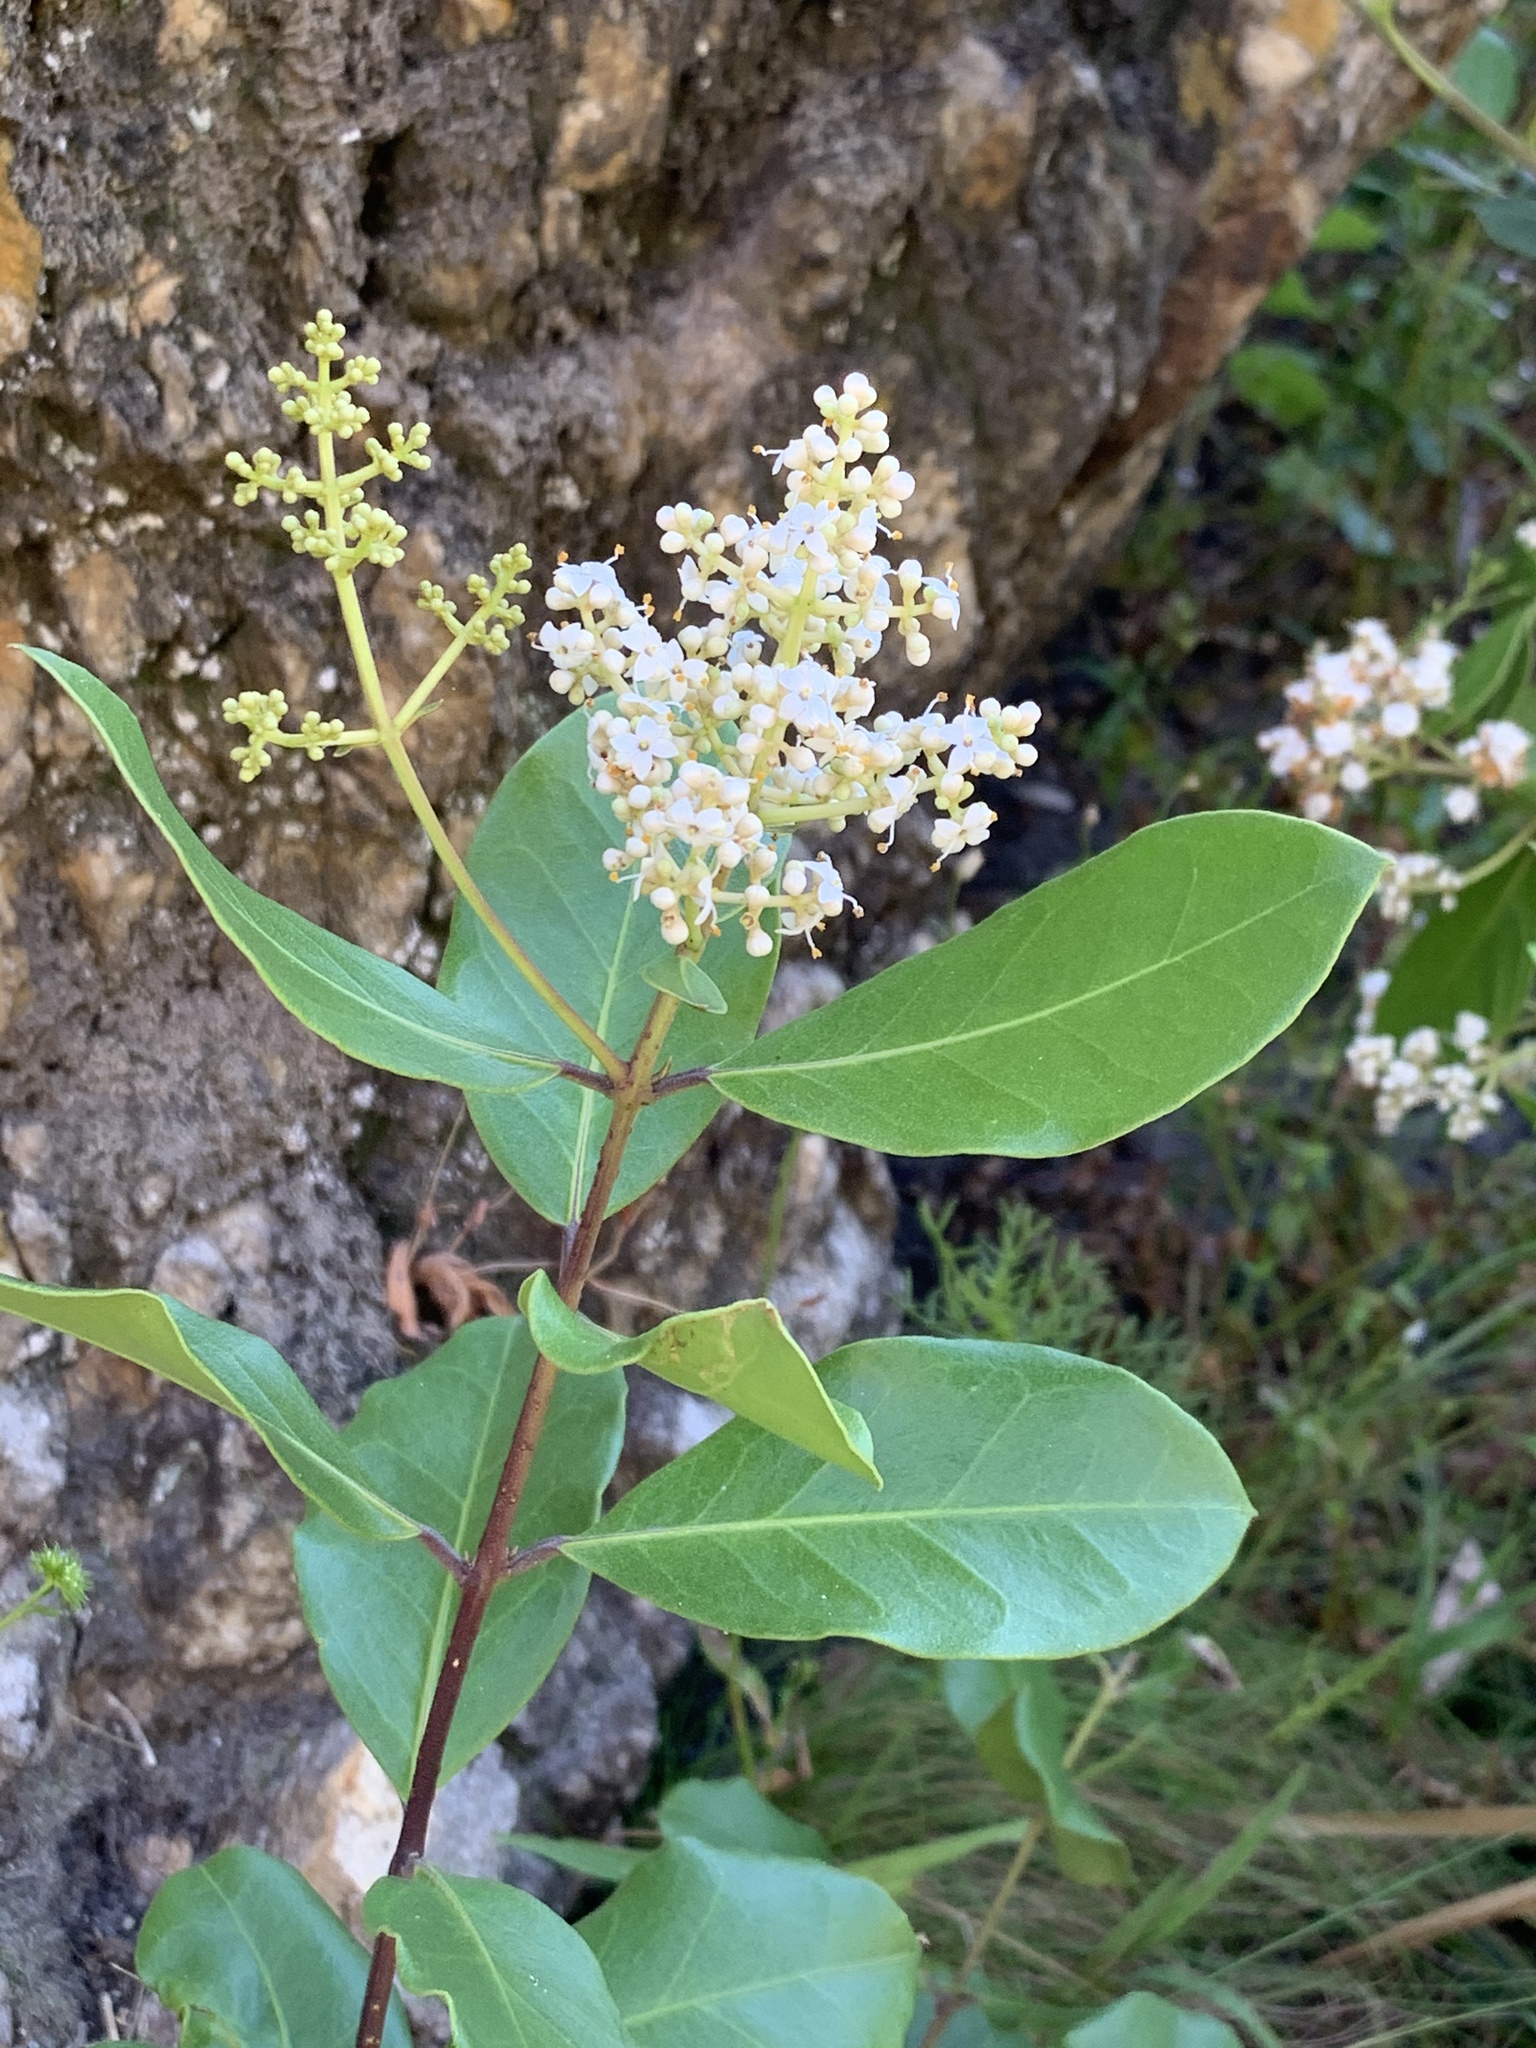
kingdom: Plantae
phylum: Tracheophyta
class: Magnoliopsida
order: Lamiales
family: Oleaceae
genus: Olea
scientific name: Olea capensis
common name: Black ironwood
